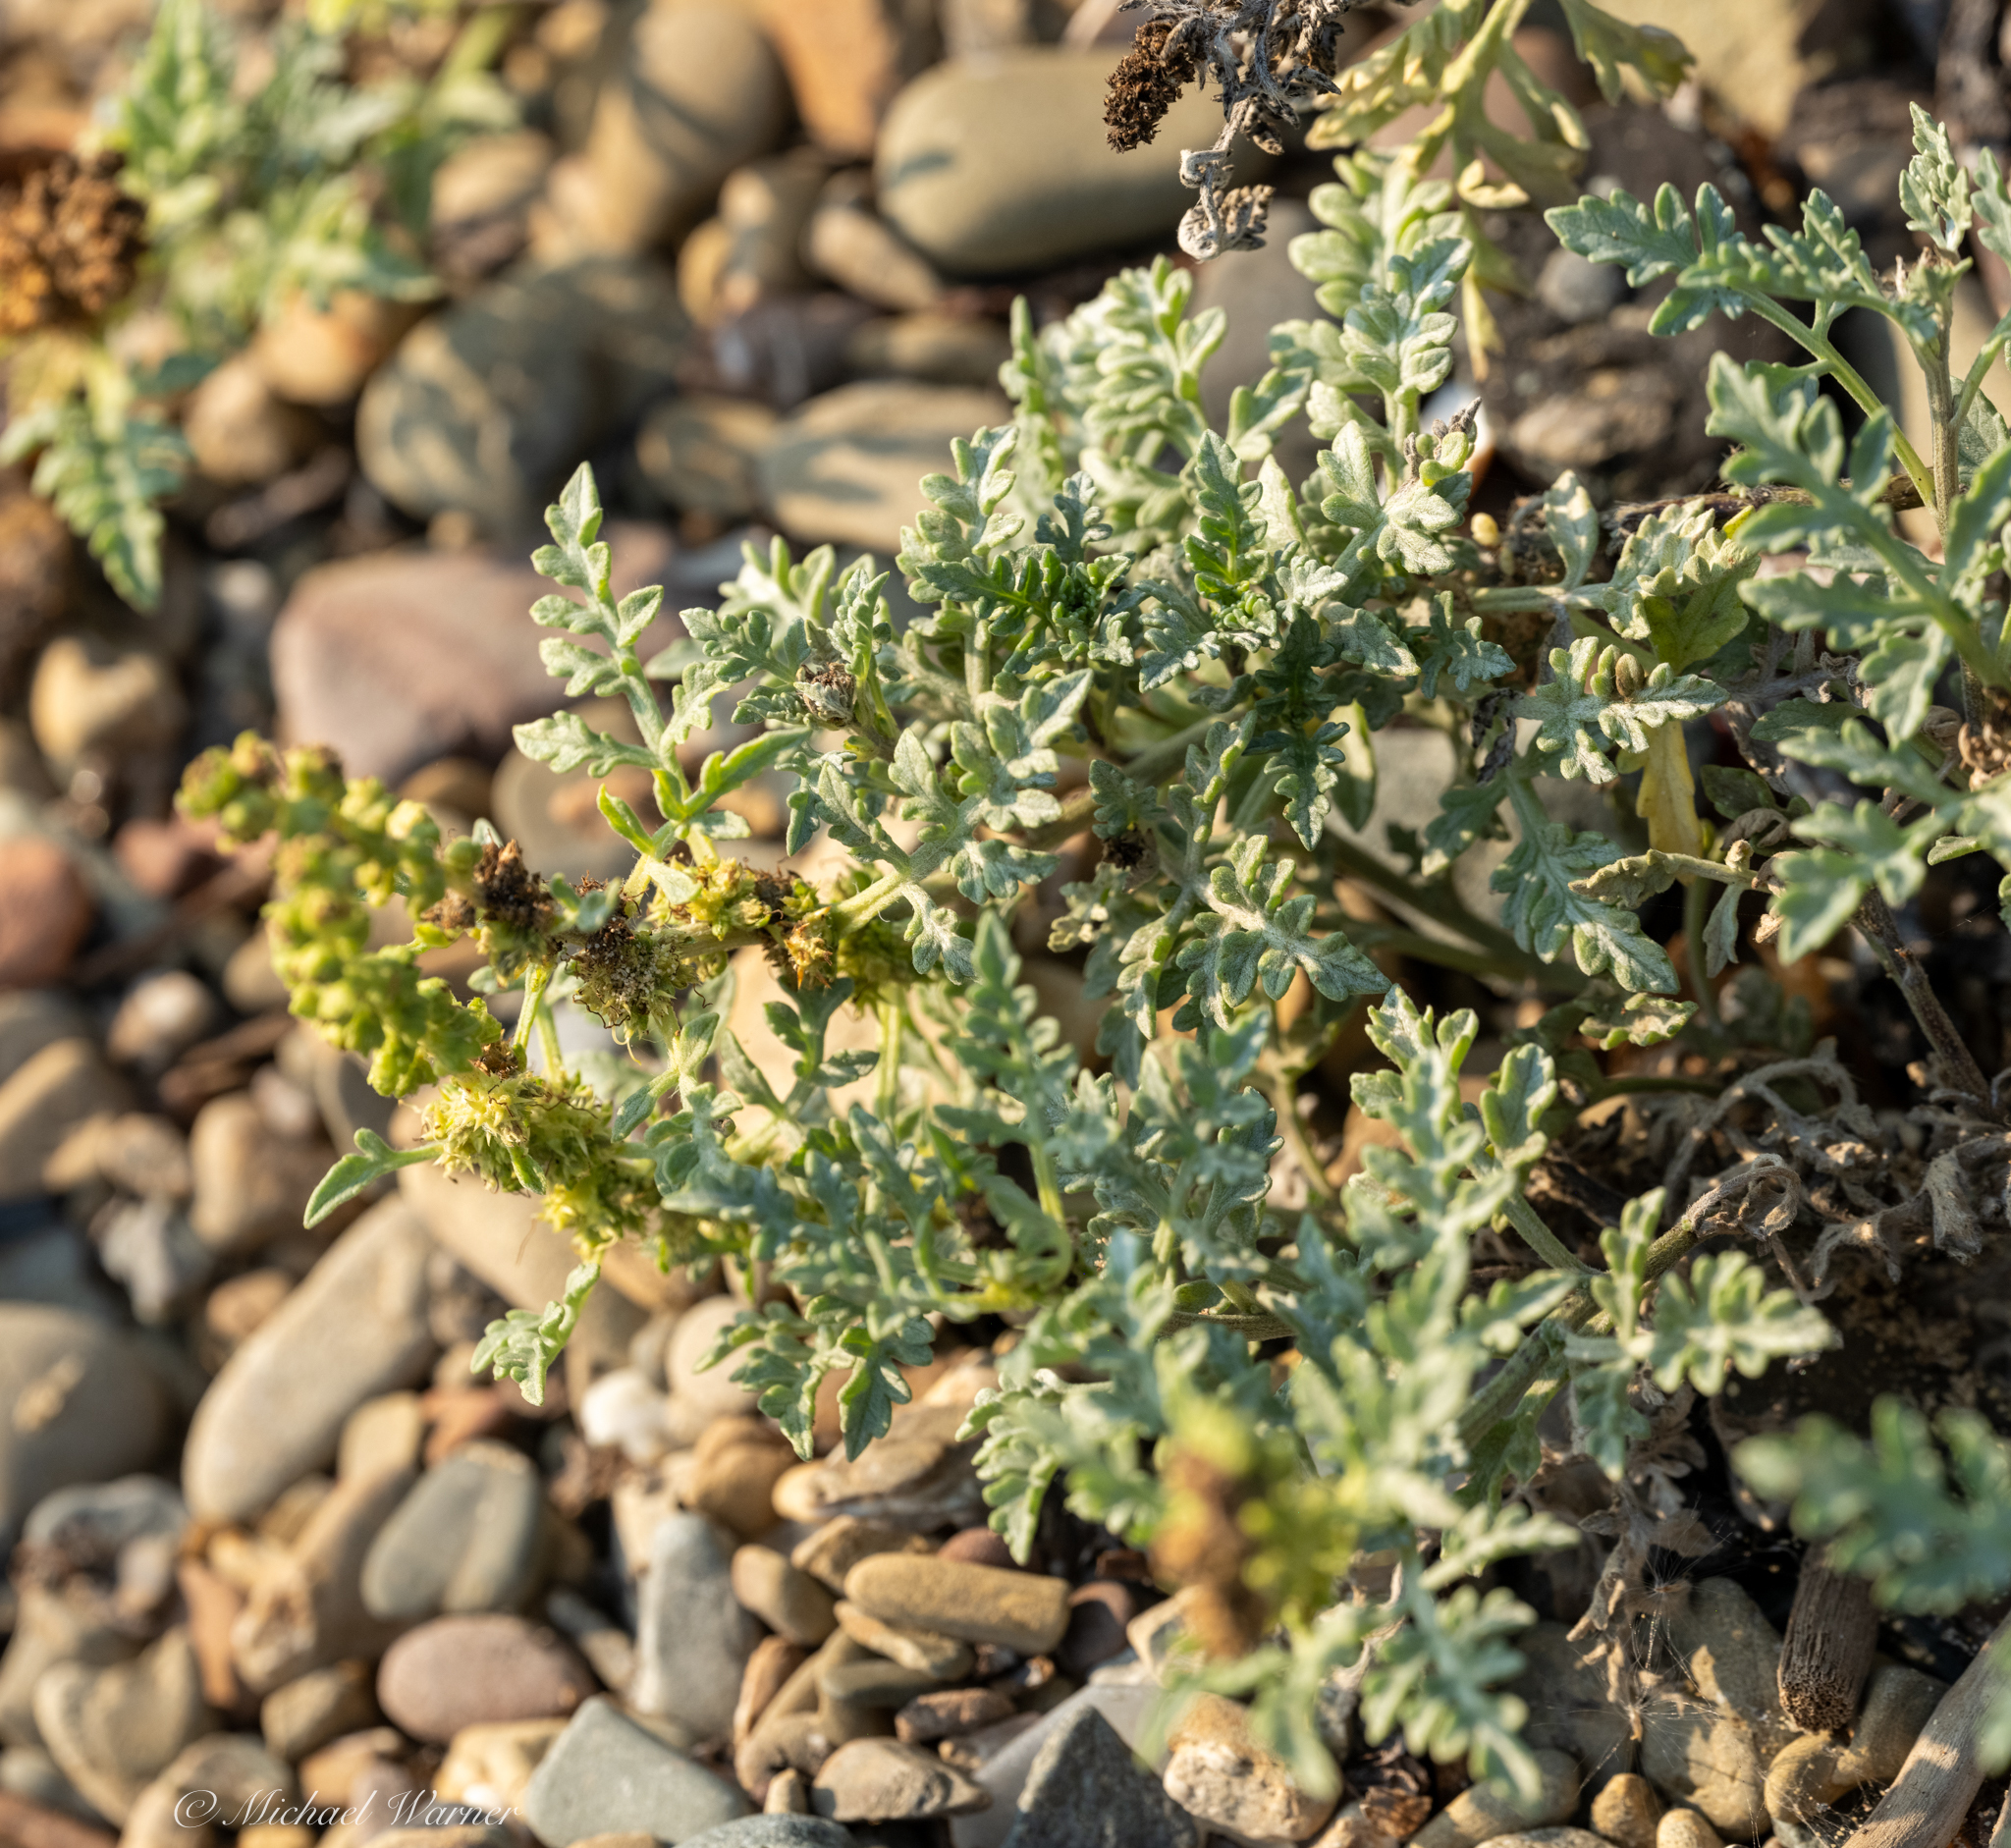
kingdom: Plantae
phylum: Tracheophyta
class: Magnoliopsida
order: Asterales
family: Asteraceae
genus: Ambrosia
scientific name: Ambrosia chamissonis
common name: Beachbur
